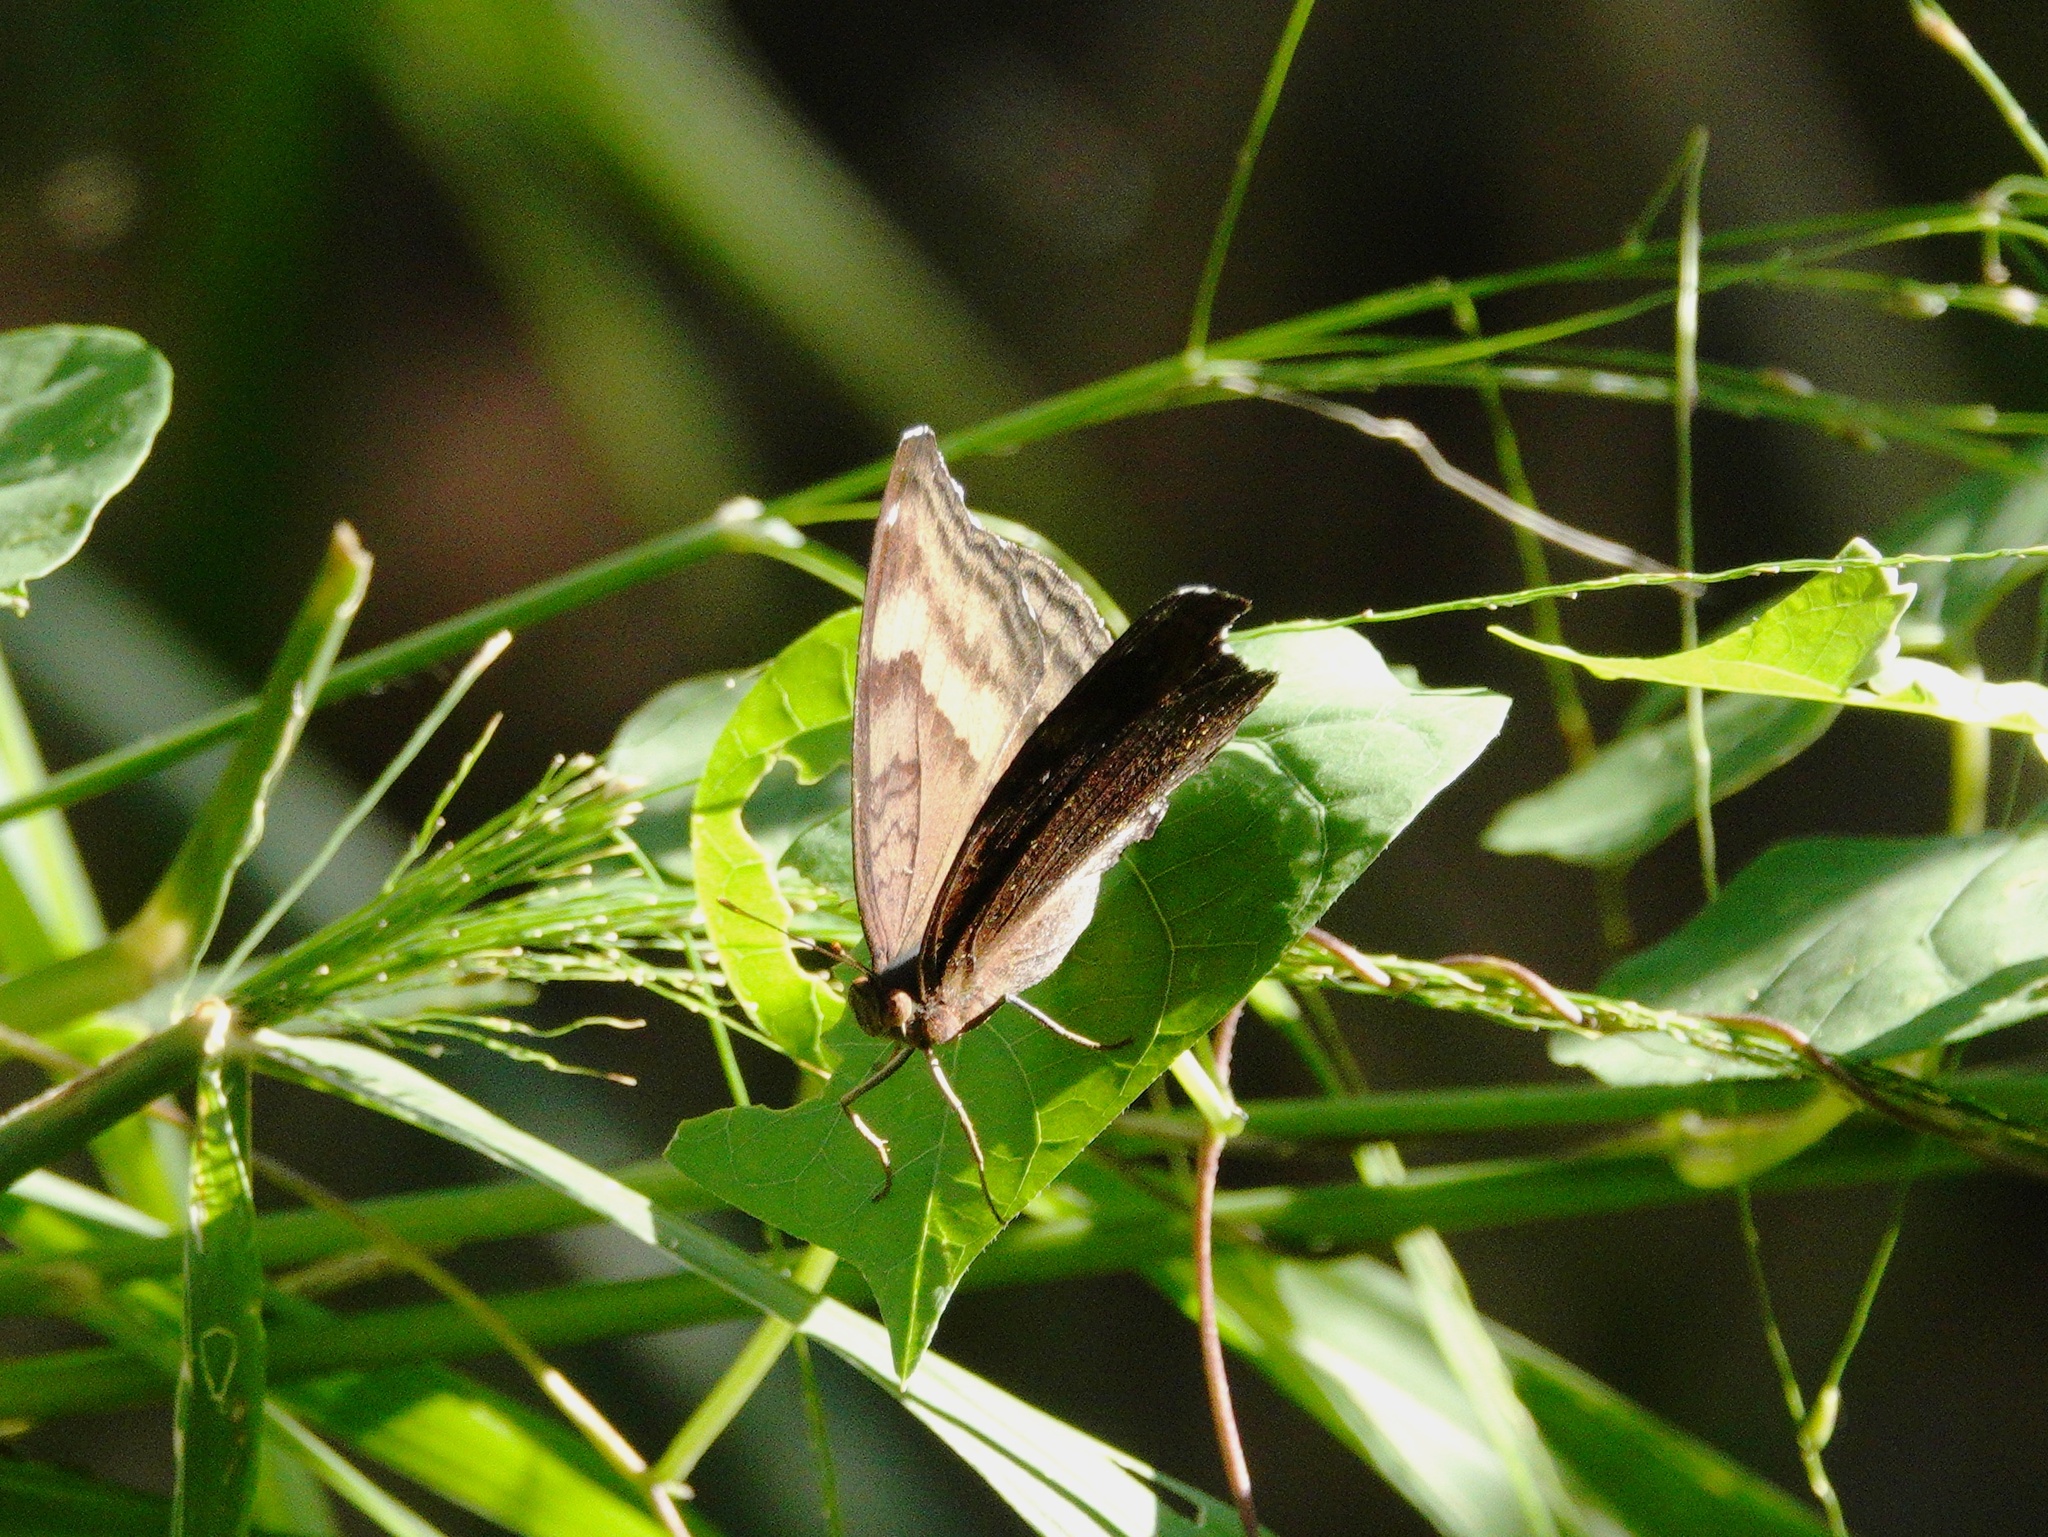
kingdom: Animalia
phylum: Arthropoda
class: Insecta
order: Lepidoptera
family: Nymphalidae
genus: Junonia
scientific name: Junonia iphita
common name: Chocolate pansy
